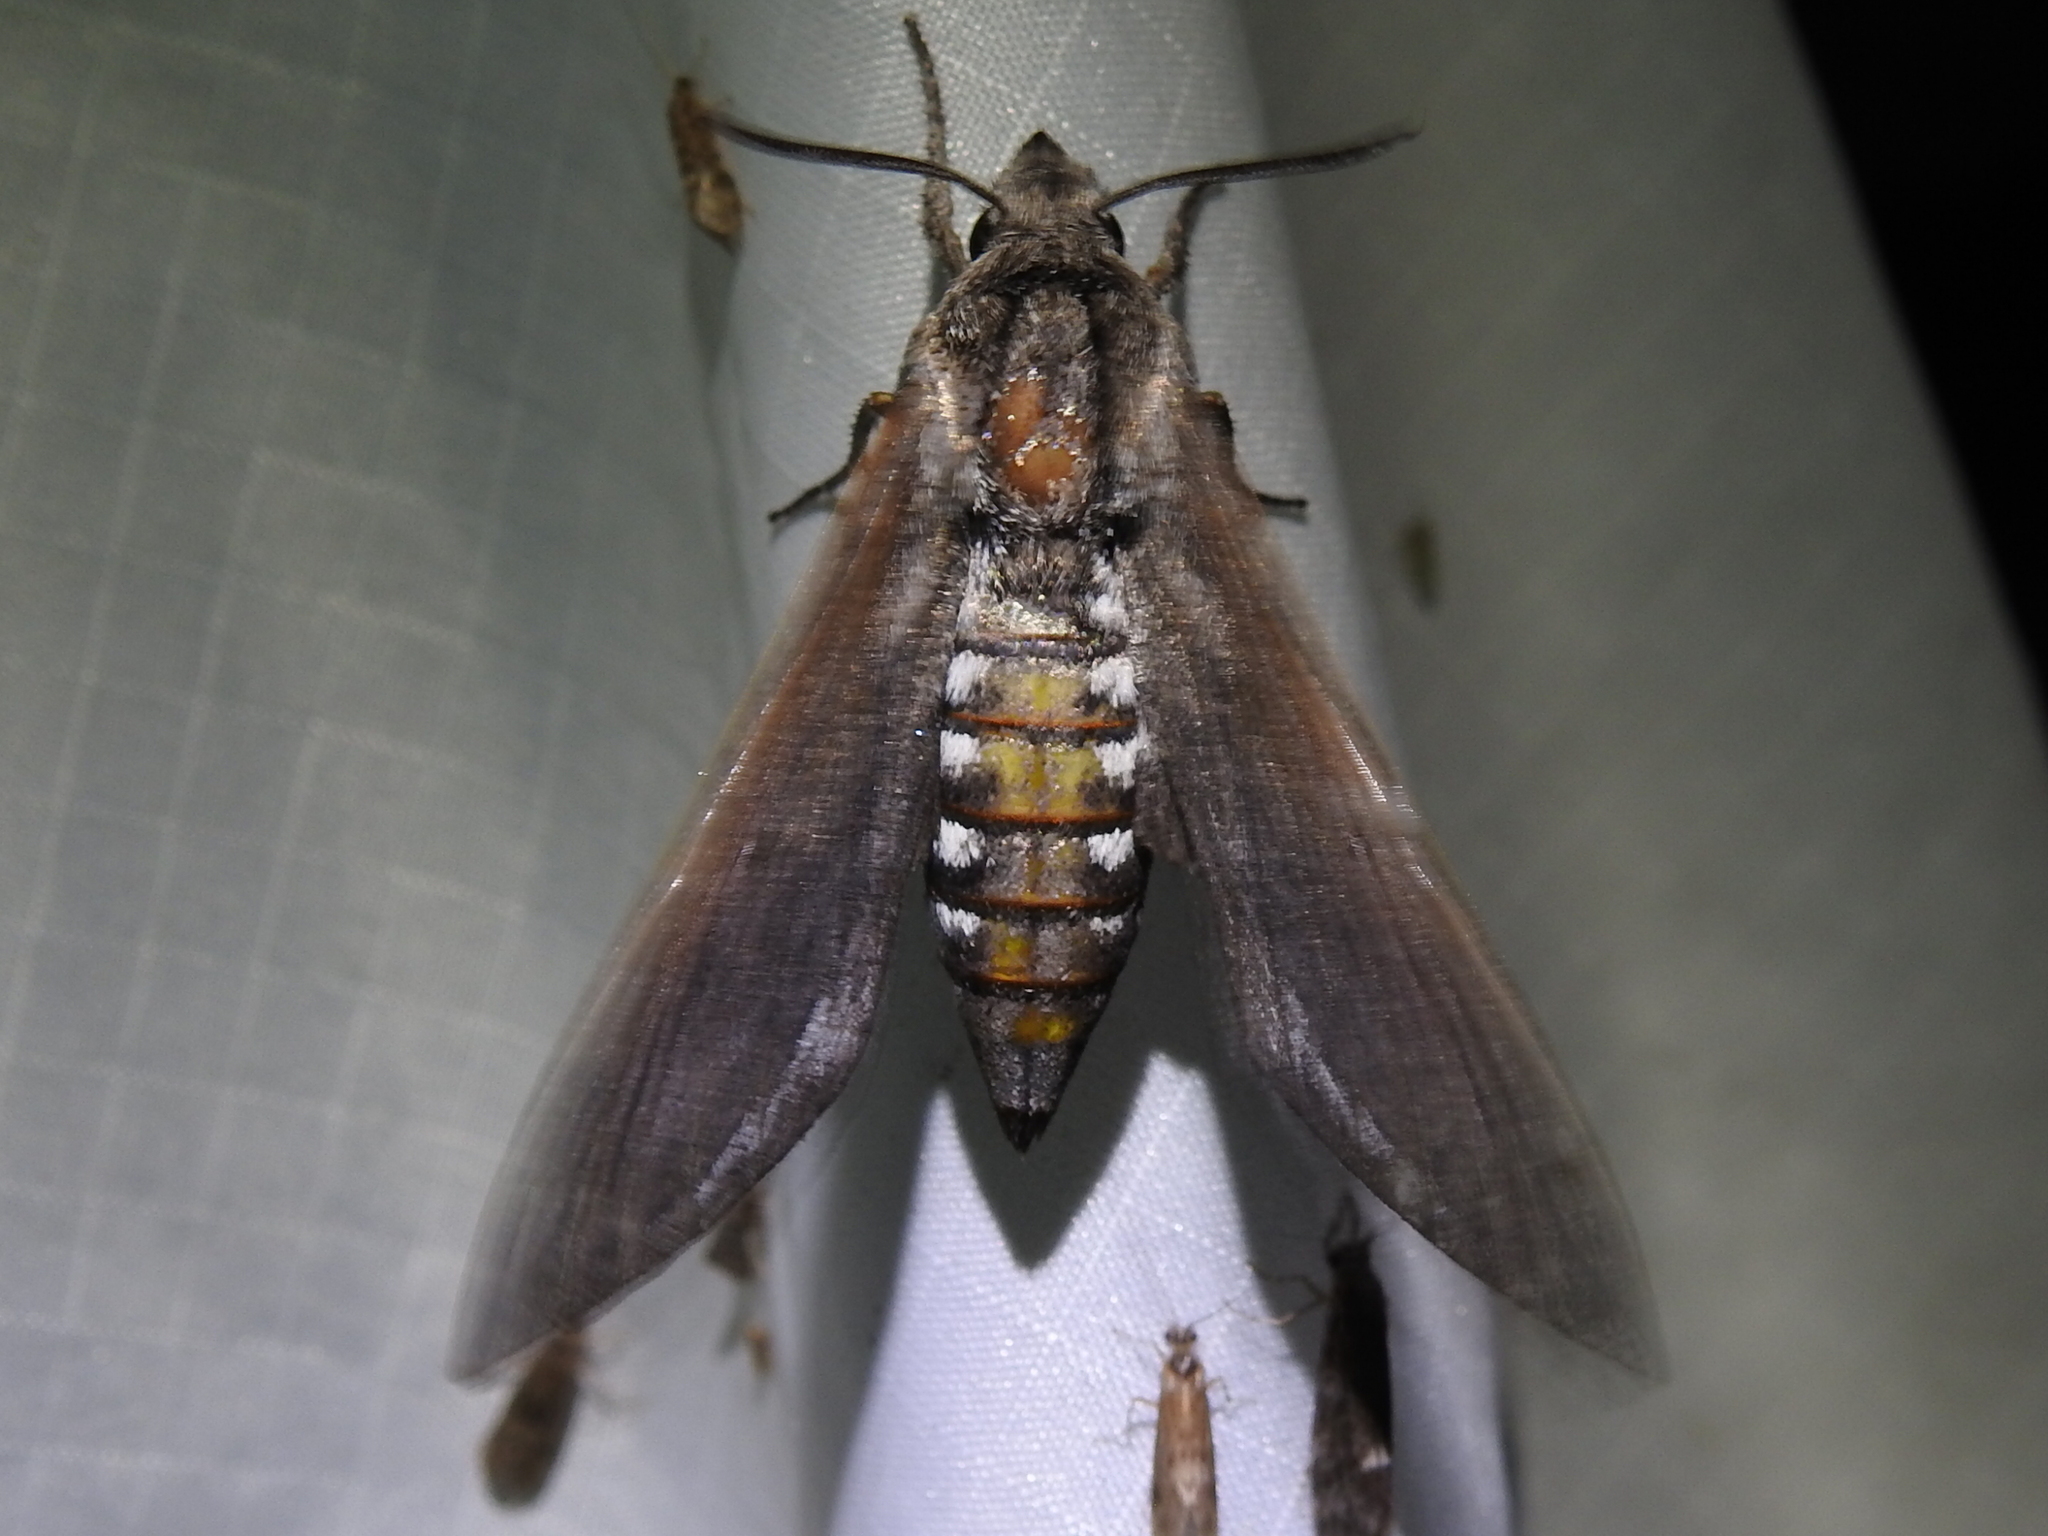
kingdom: Animalia
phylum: Arthropoda
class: Insecta
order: Lepidoptera
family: Sphingidae
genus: Sphinx
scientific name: Sphinx libocedrus
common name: Incense cedar sphinx
